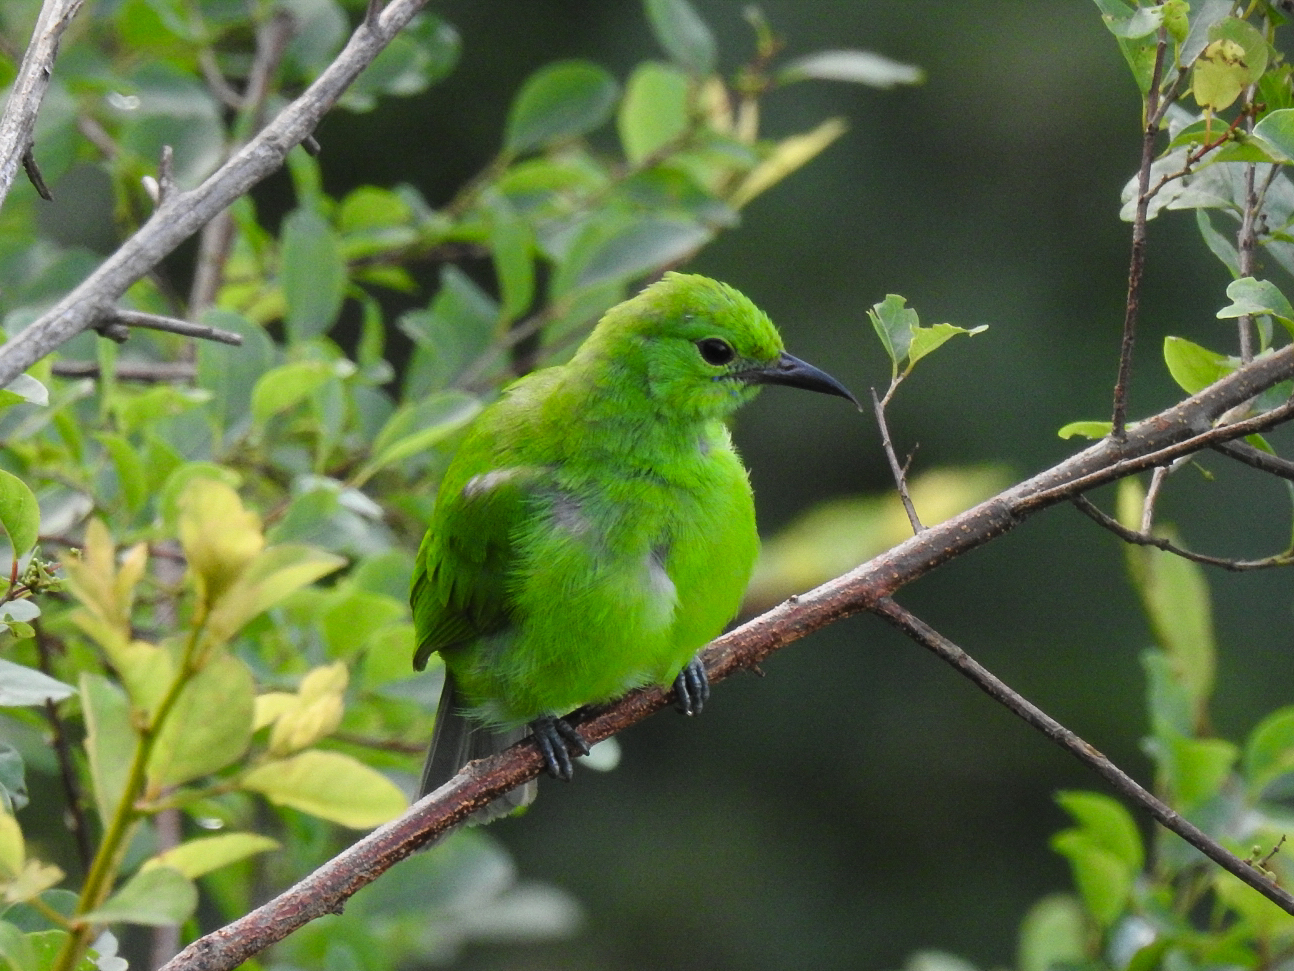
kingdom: Animalia
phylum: Chordata
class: Aves
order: Passeriformes
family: Chloropseidae
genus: Chloropsis
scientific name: Chloropsis aurifrons
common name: Golden-fronted leafbird
